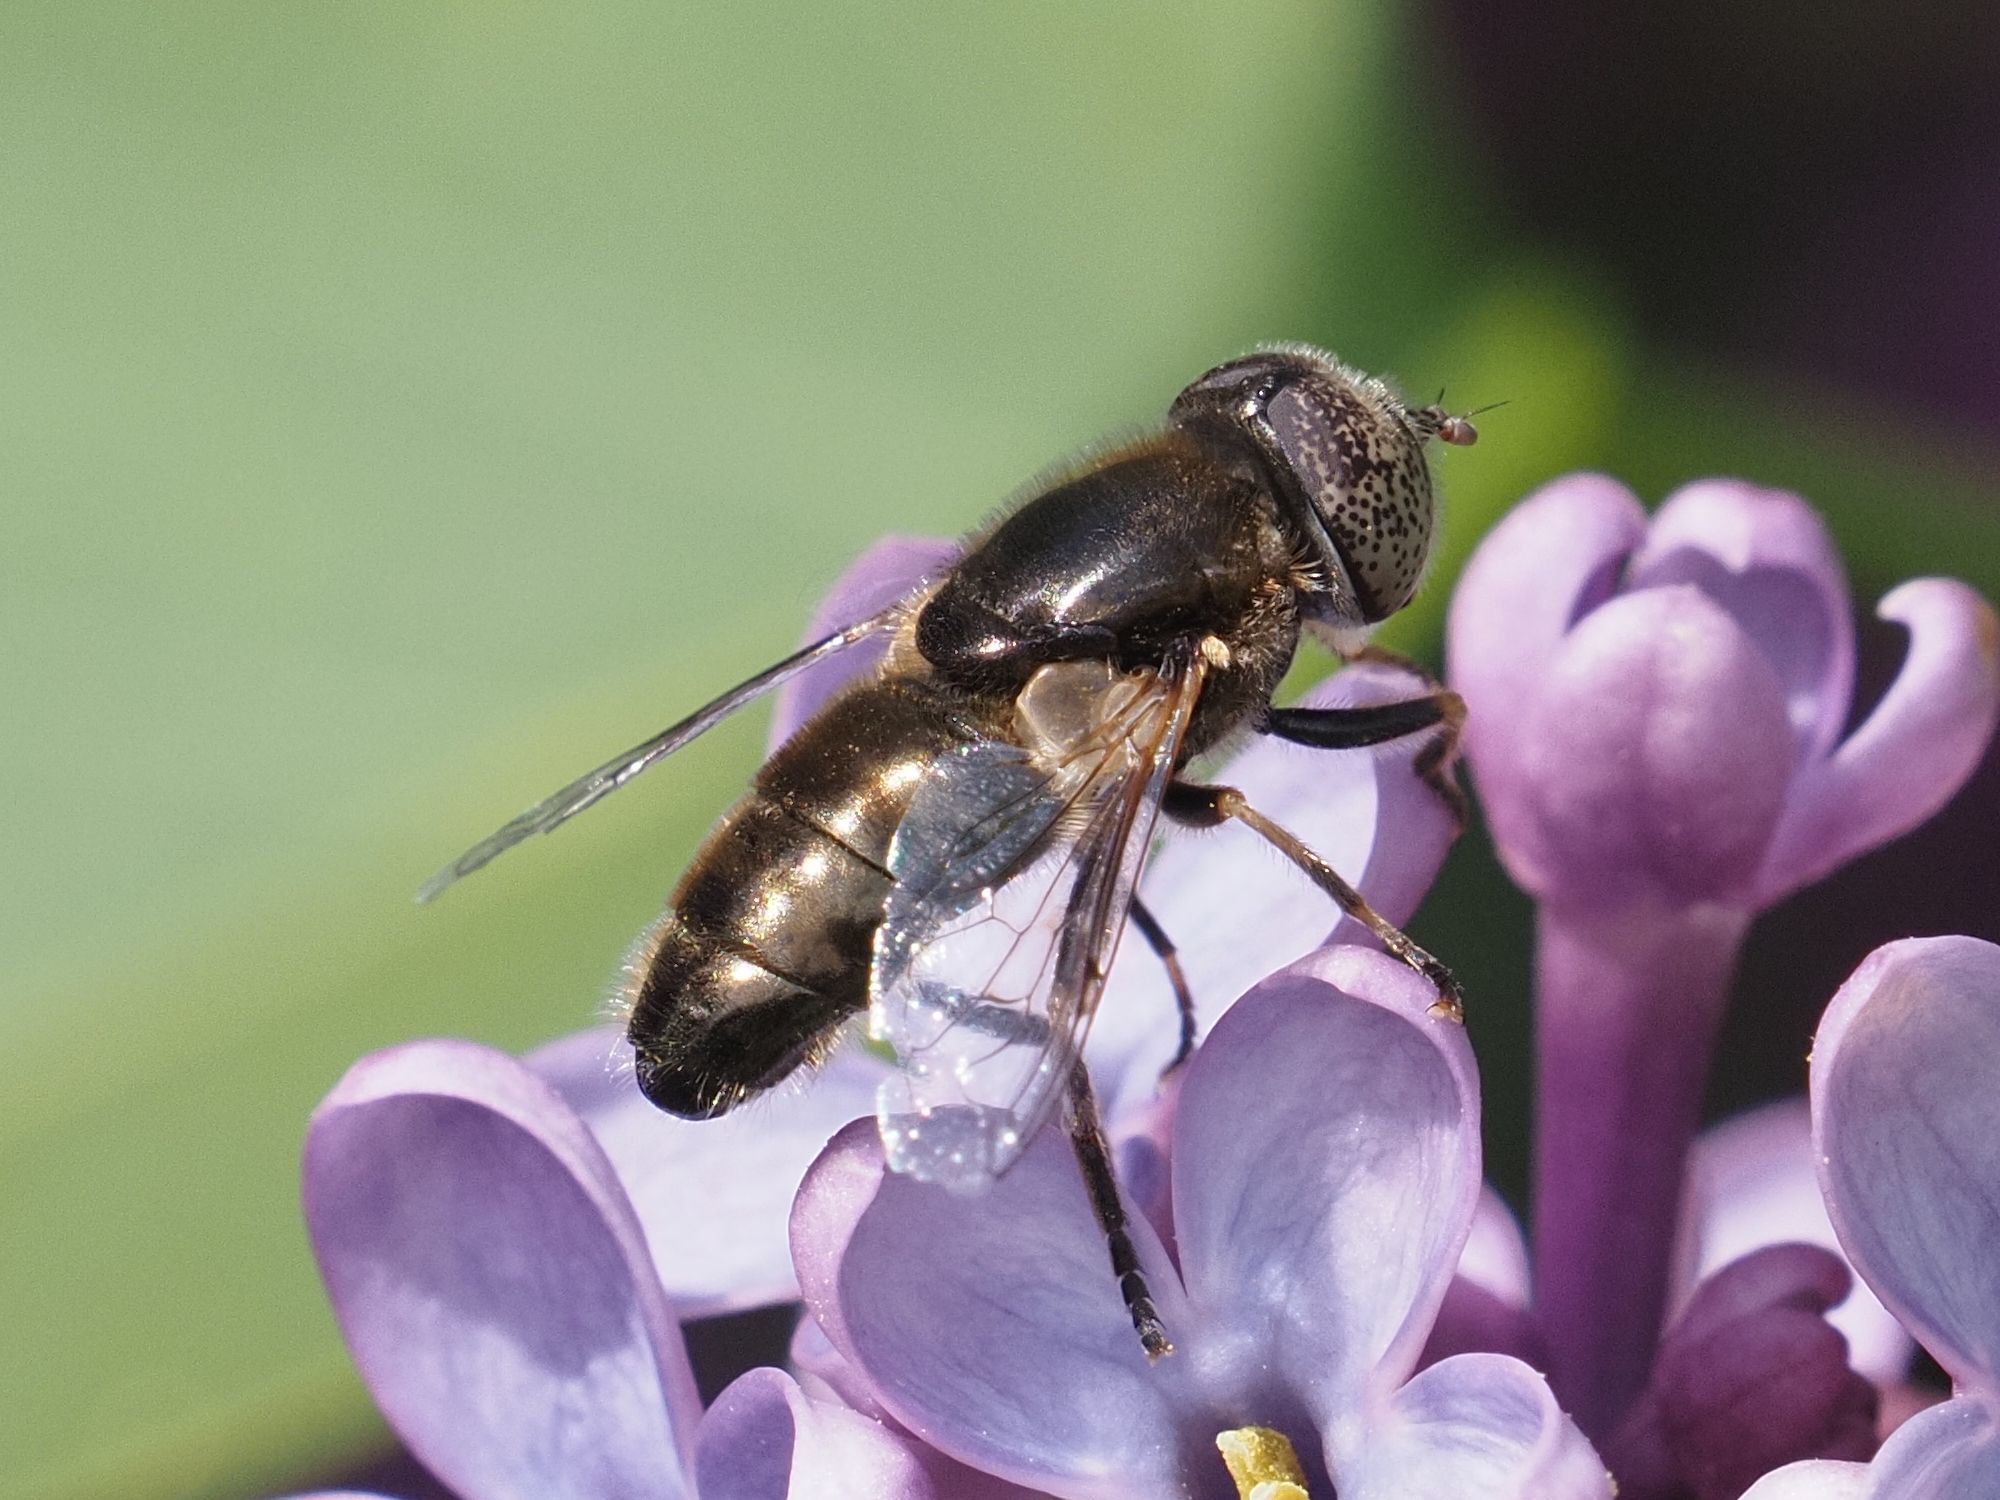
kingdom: Animalia
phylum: Arthropoda
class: Insecta
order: Diptera
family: Syrphidae
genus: Eristalinus
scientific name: Eristalinus aeneus
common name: Syrphid fly
